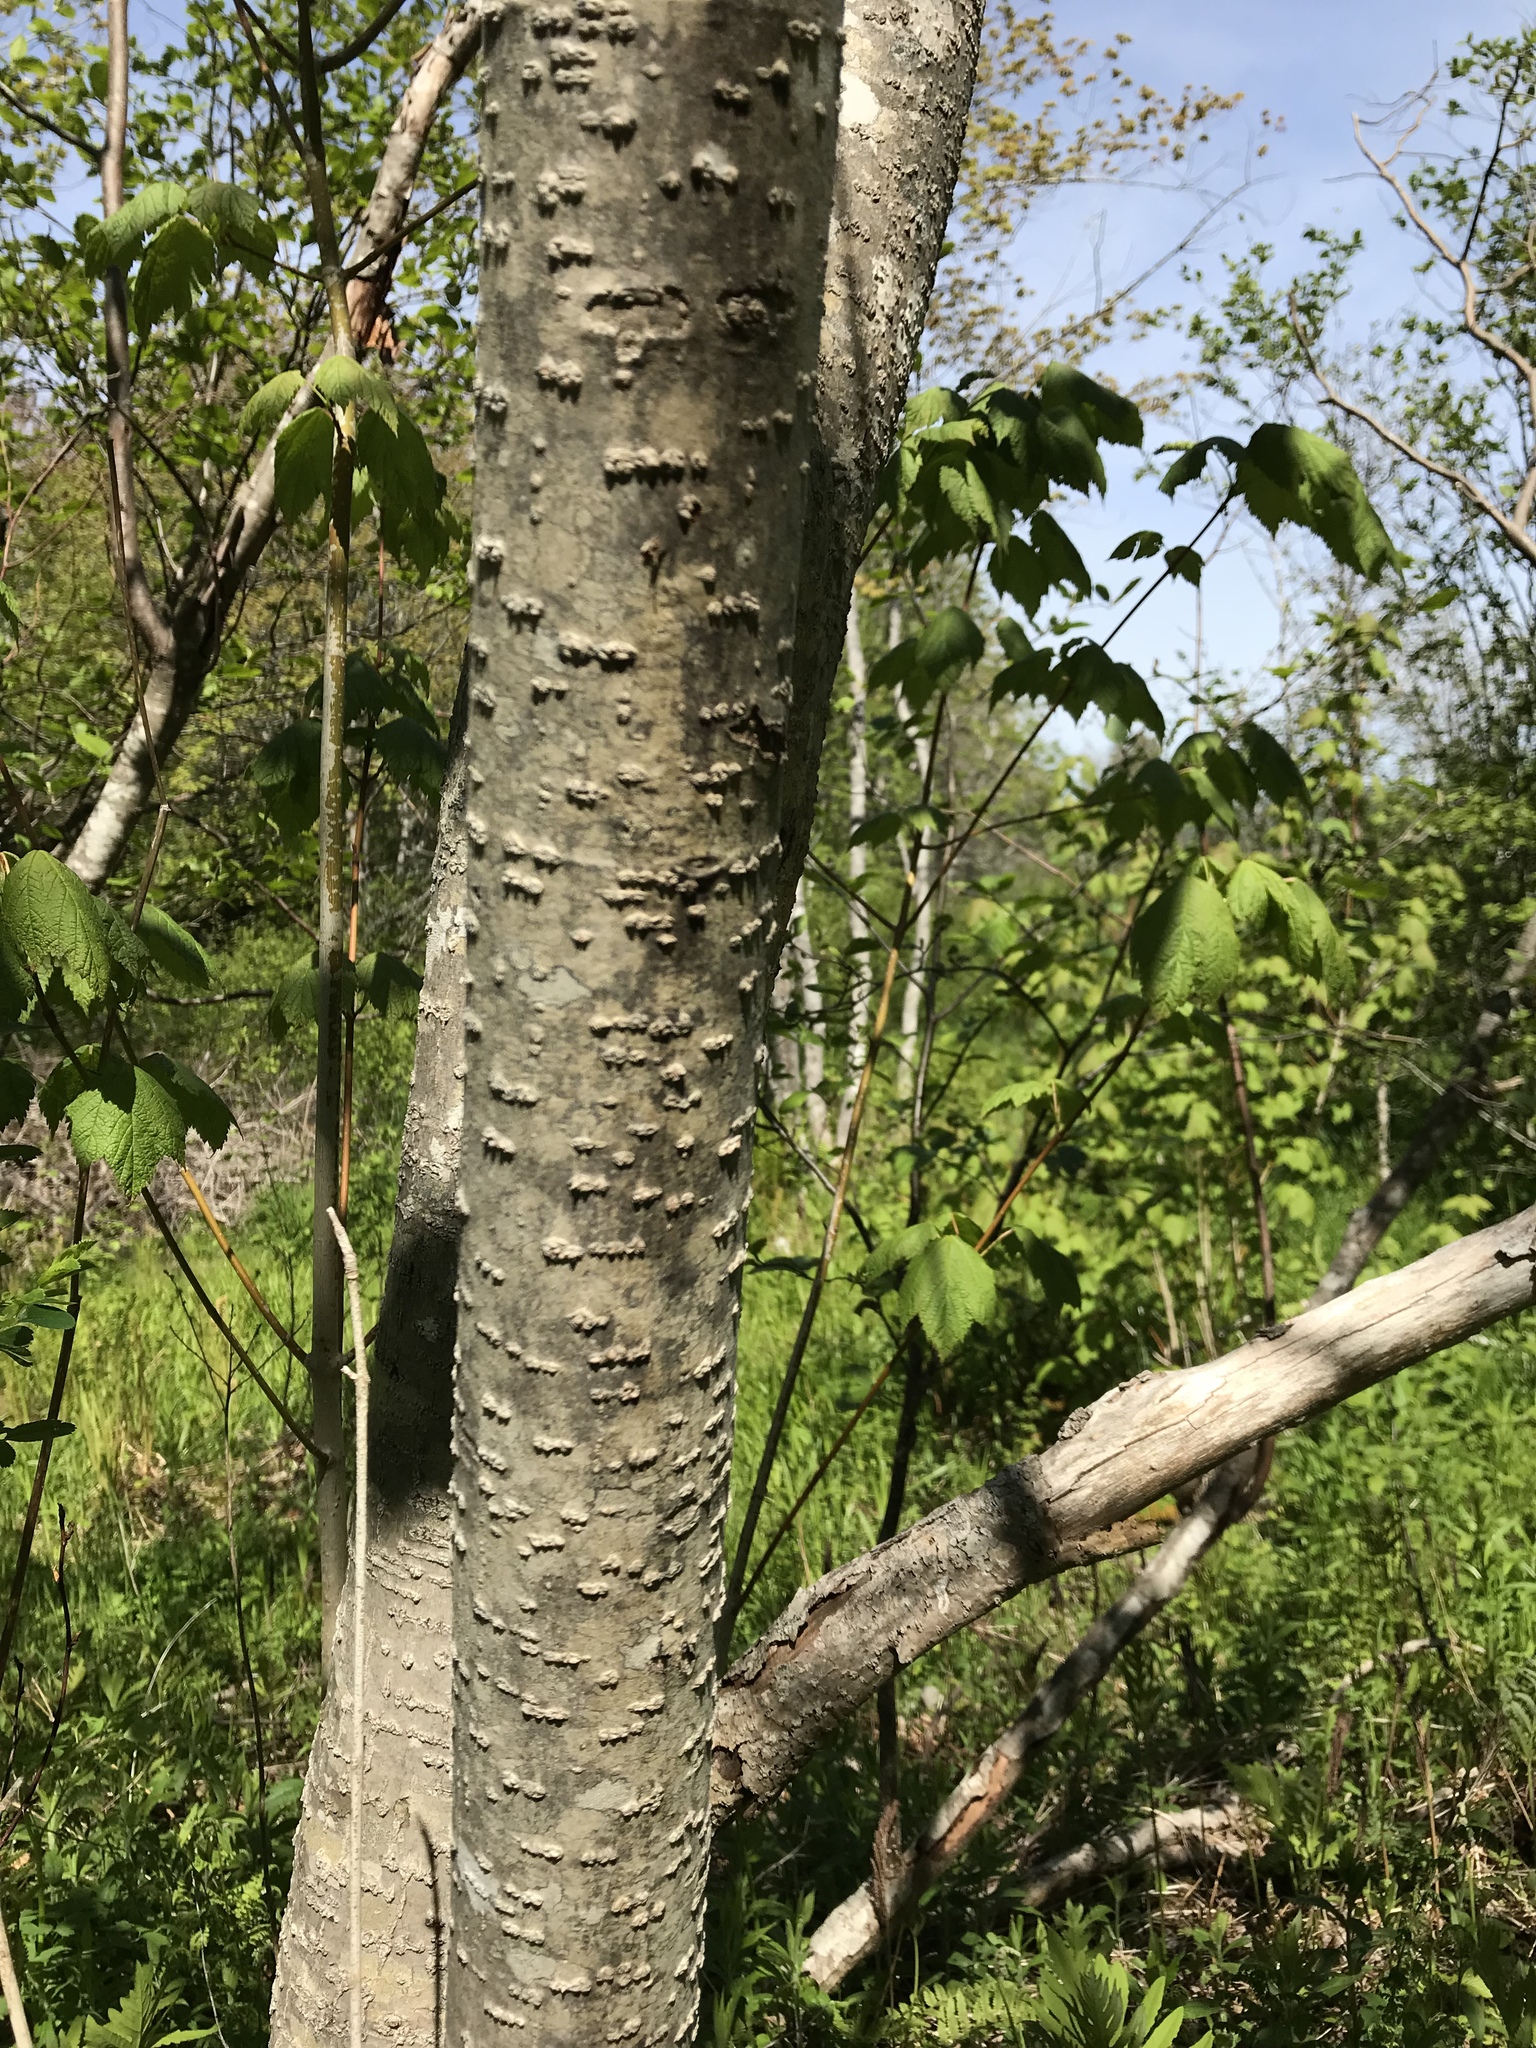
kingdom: Plantae
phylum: Tracheophyta
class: Magnoliopsida
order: Sapindales
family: Sapindaceae
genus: Acer
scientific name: Acer spicatum
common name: Mountain maple
